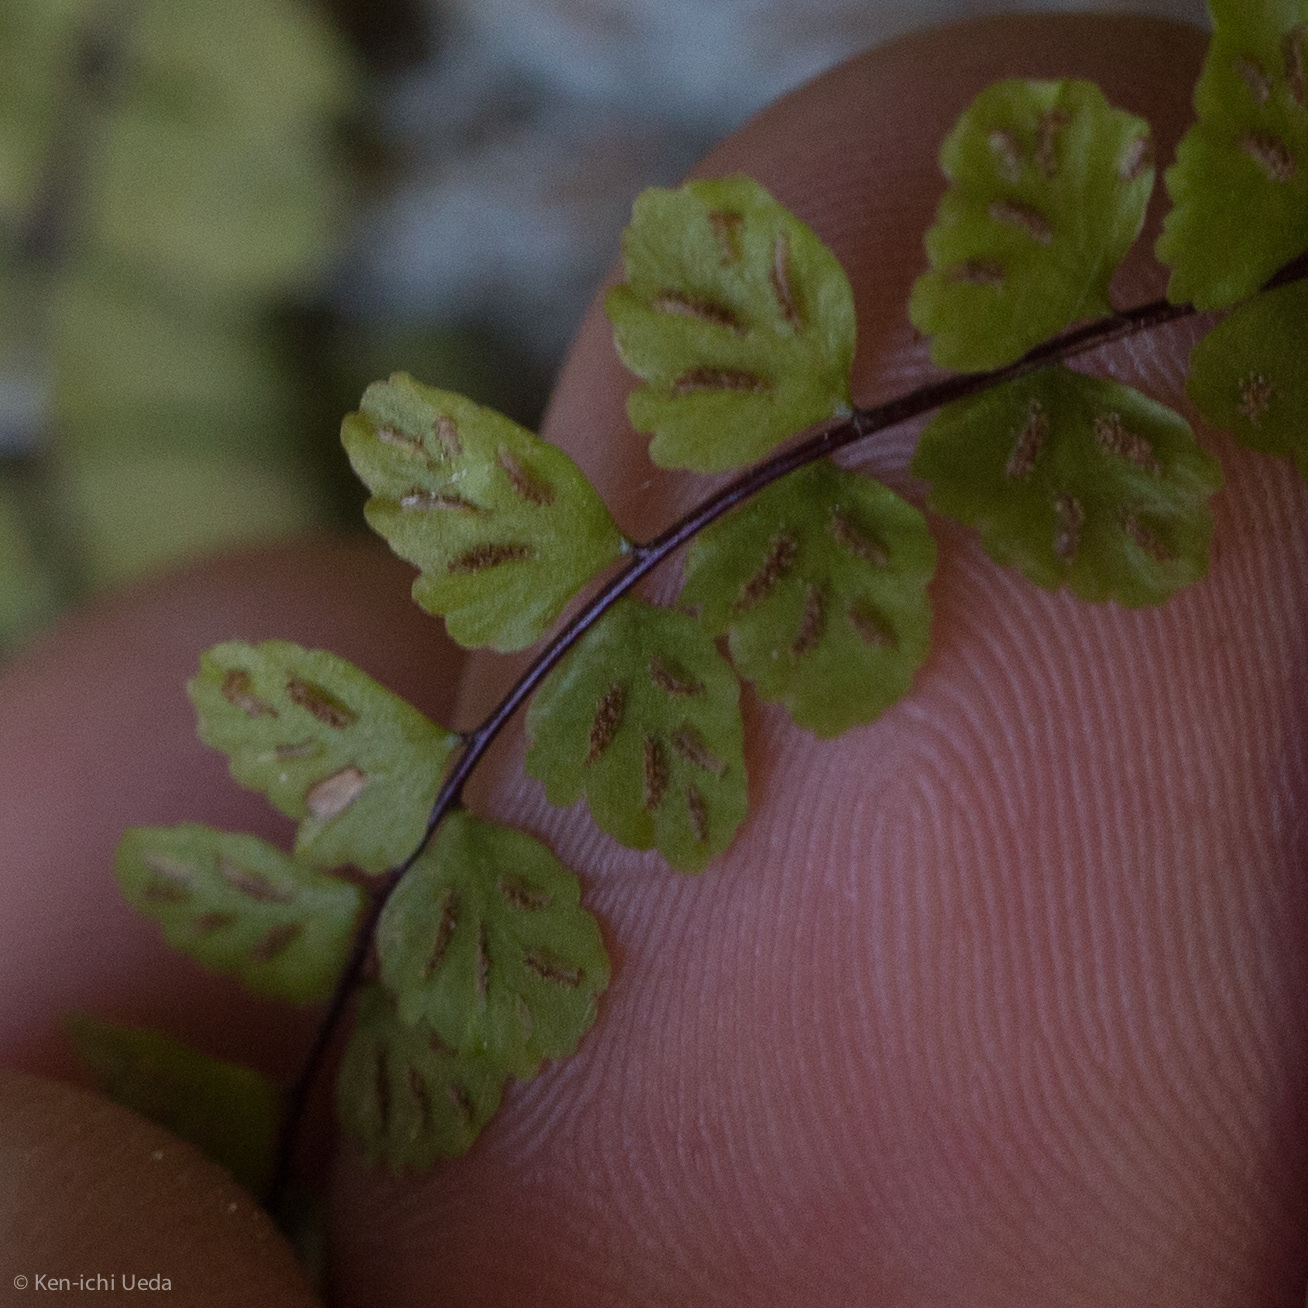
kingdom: Plantae
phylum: Tracheophyta
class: Polypodiopsida
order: Polypodiales
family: Aspleniaceae
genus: Asplenium
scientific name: Asplenium trichomanes
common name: Maidenhair spleenwort
